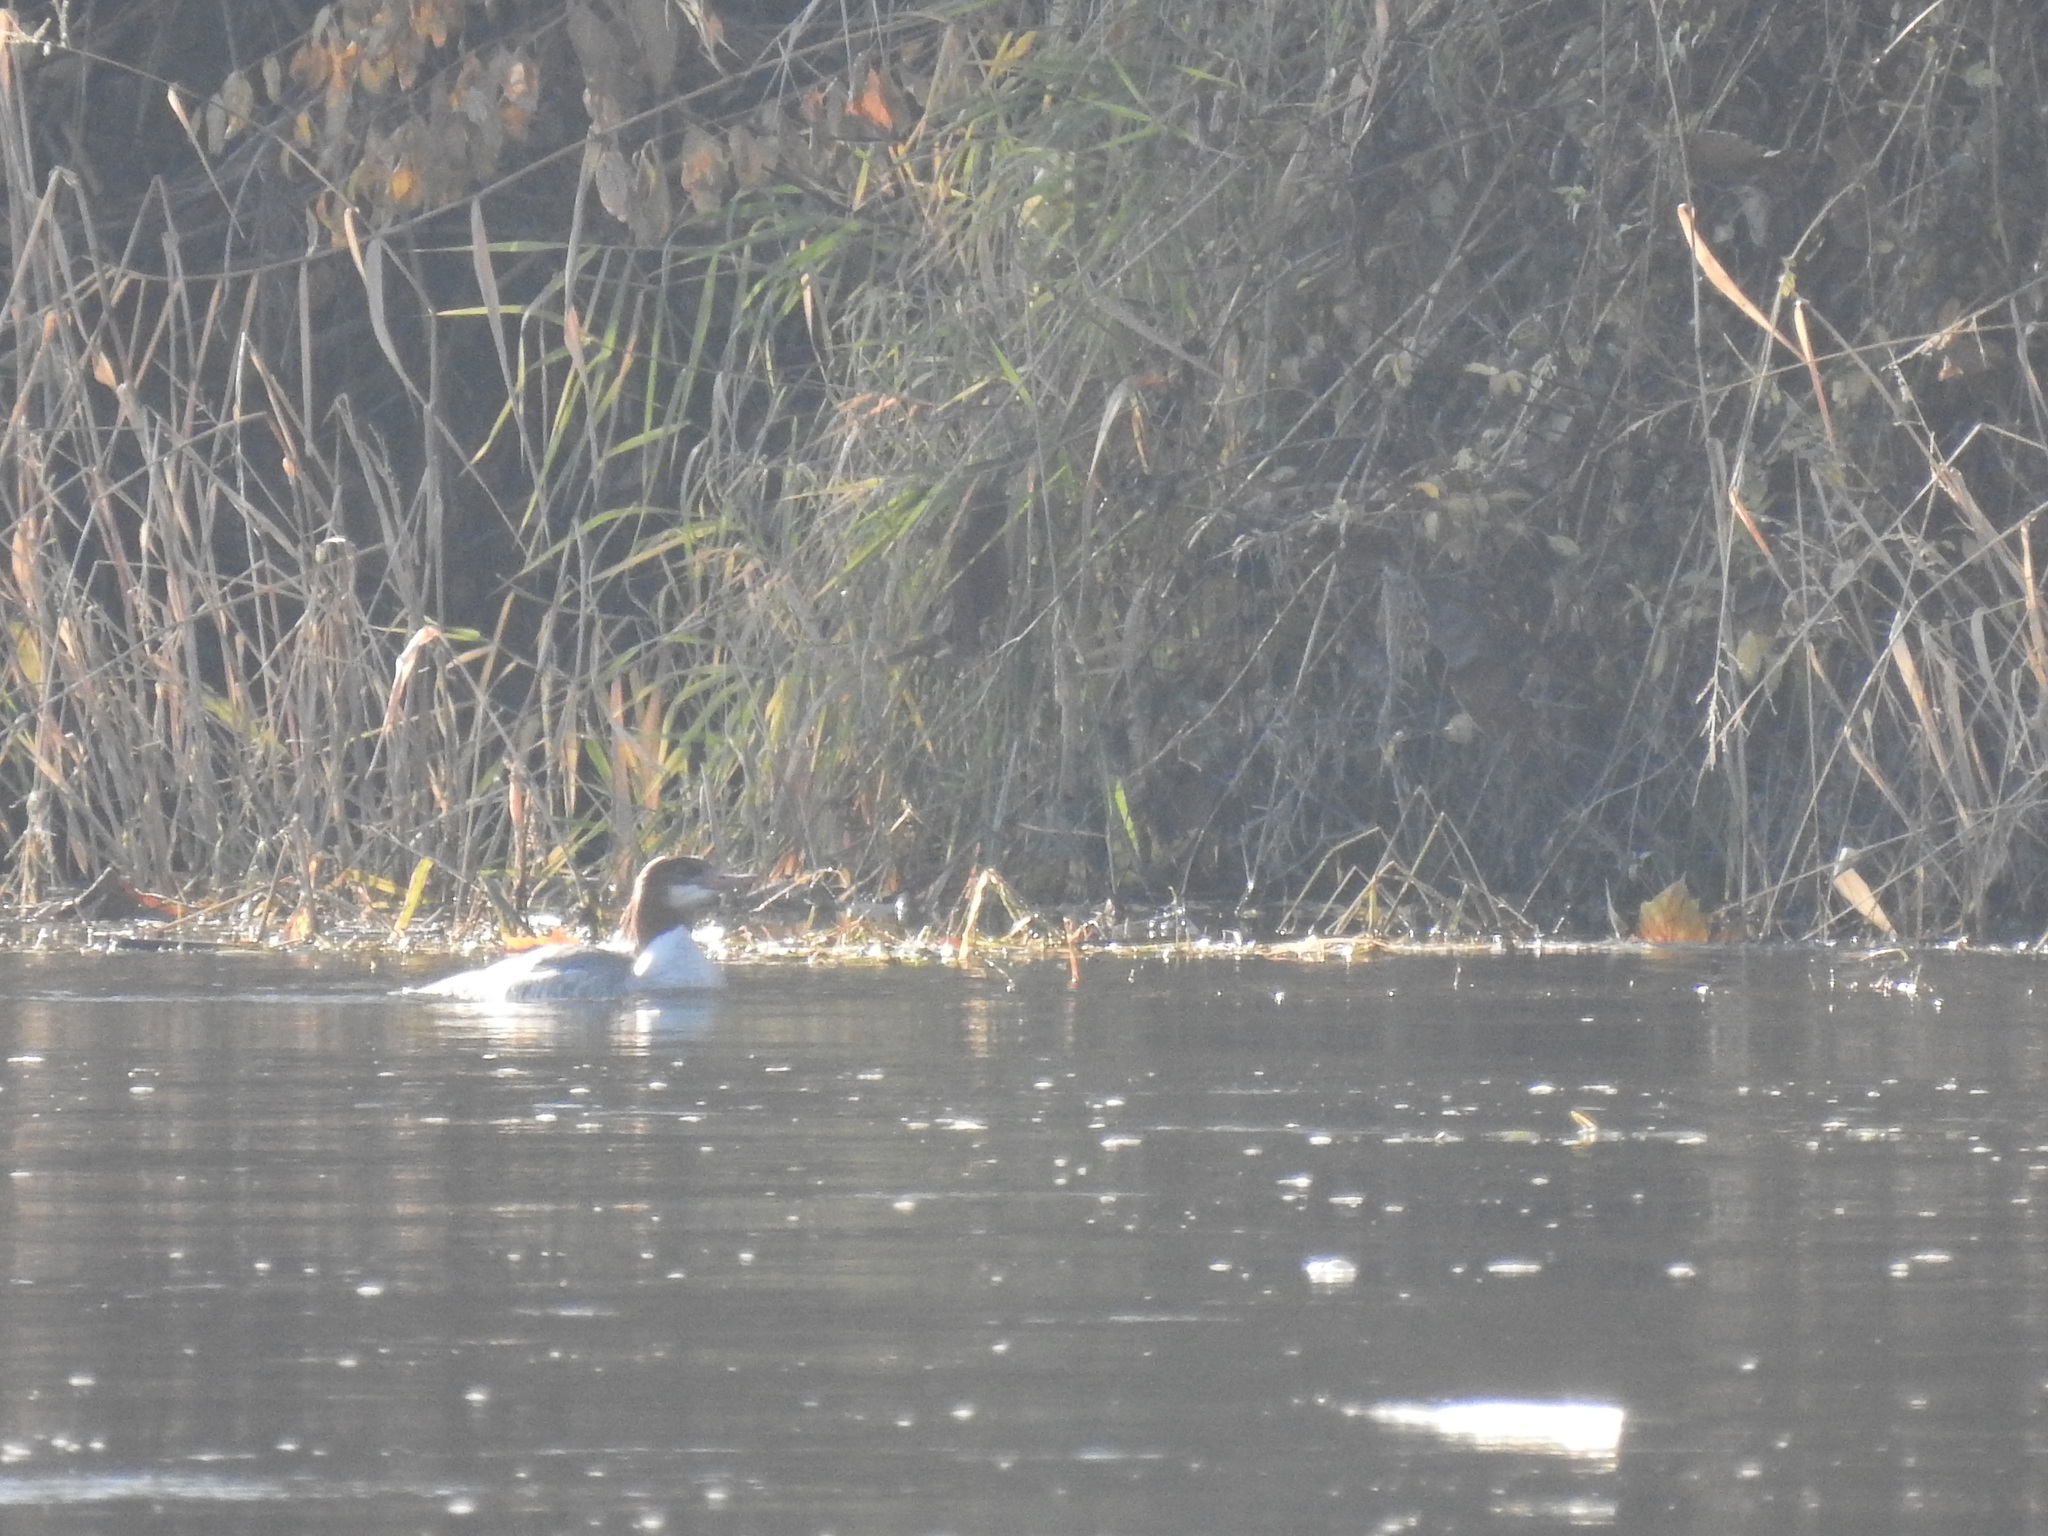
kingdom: Animalia
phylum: Chordata
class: Aves
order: Anseriformes
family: Anatidae
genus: Mergus
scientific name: Mergus merganser
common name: Common merganser
